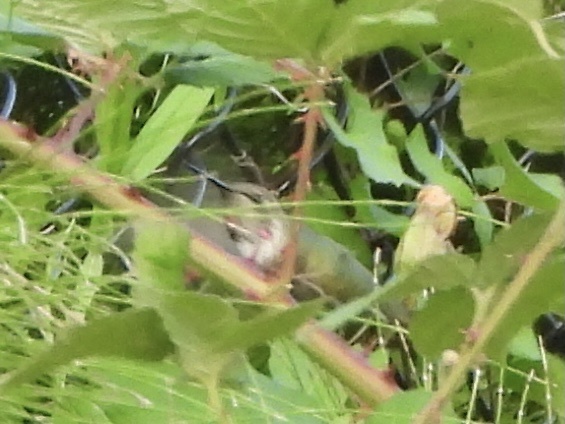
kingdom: Animalia
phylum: Chordata
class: Aves
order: Apodiformes
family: Trochilidae
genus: Calypte
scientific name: Calypte anna
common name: Anna's hummingbird
